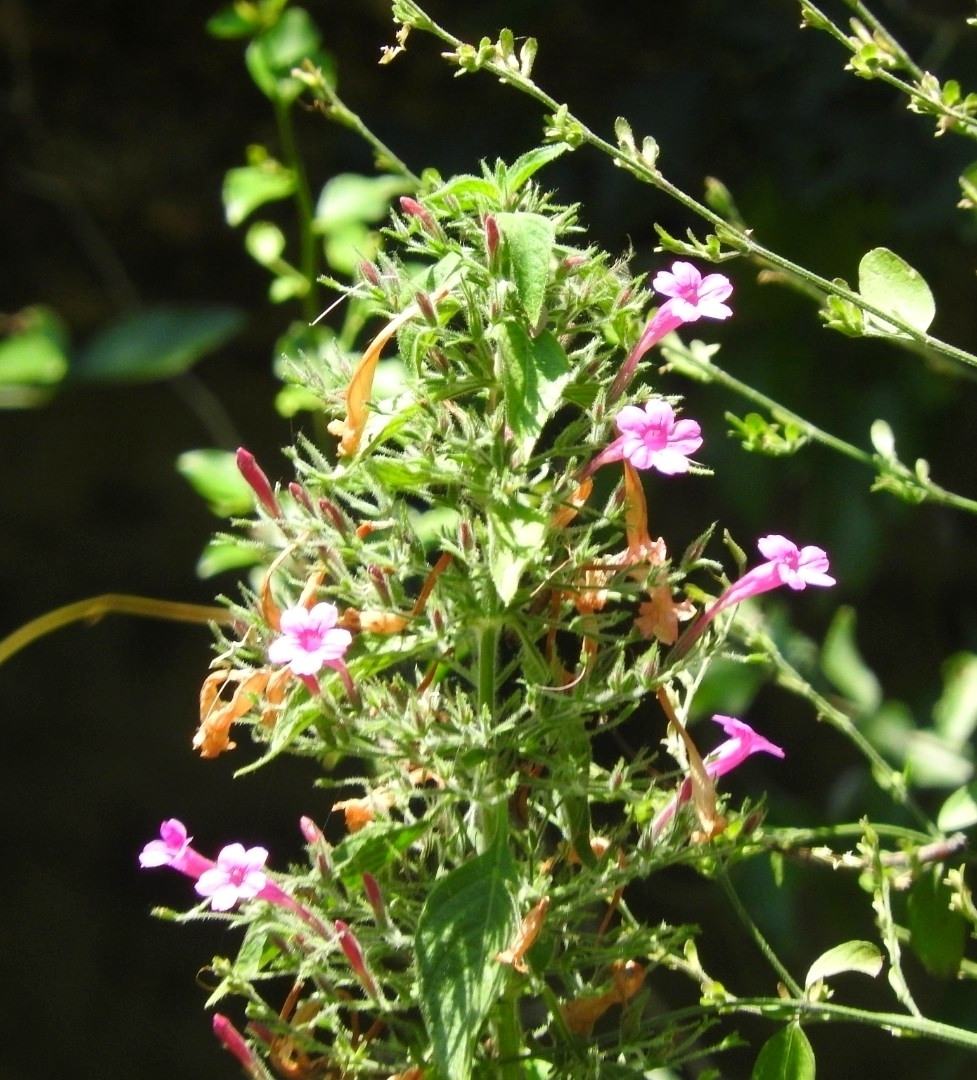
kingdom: Plantae
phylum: Tracheophyta
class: Magnoliopsida
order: Lamiales
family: Acanthaceae
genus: Ruellia
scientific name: Ruellia inundata
